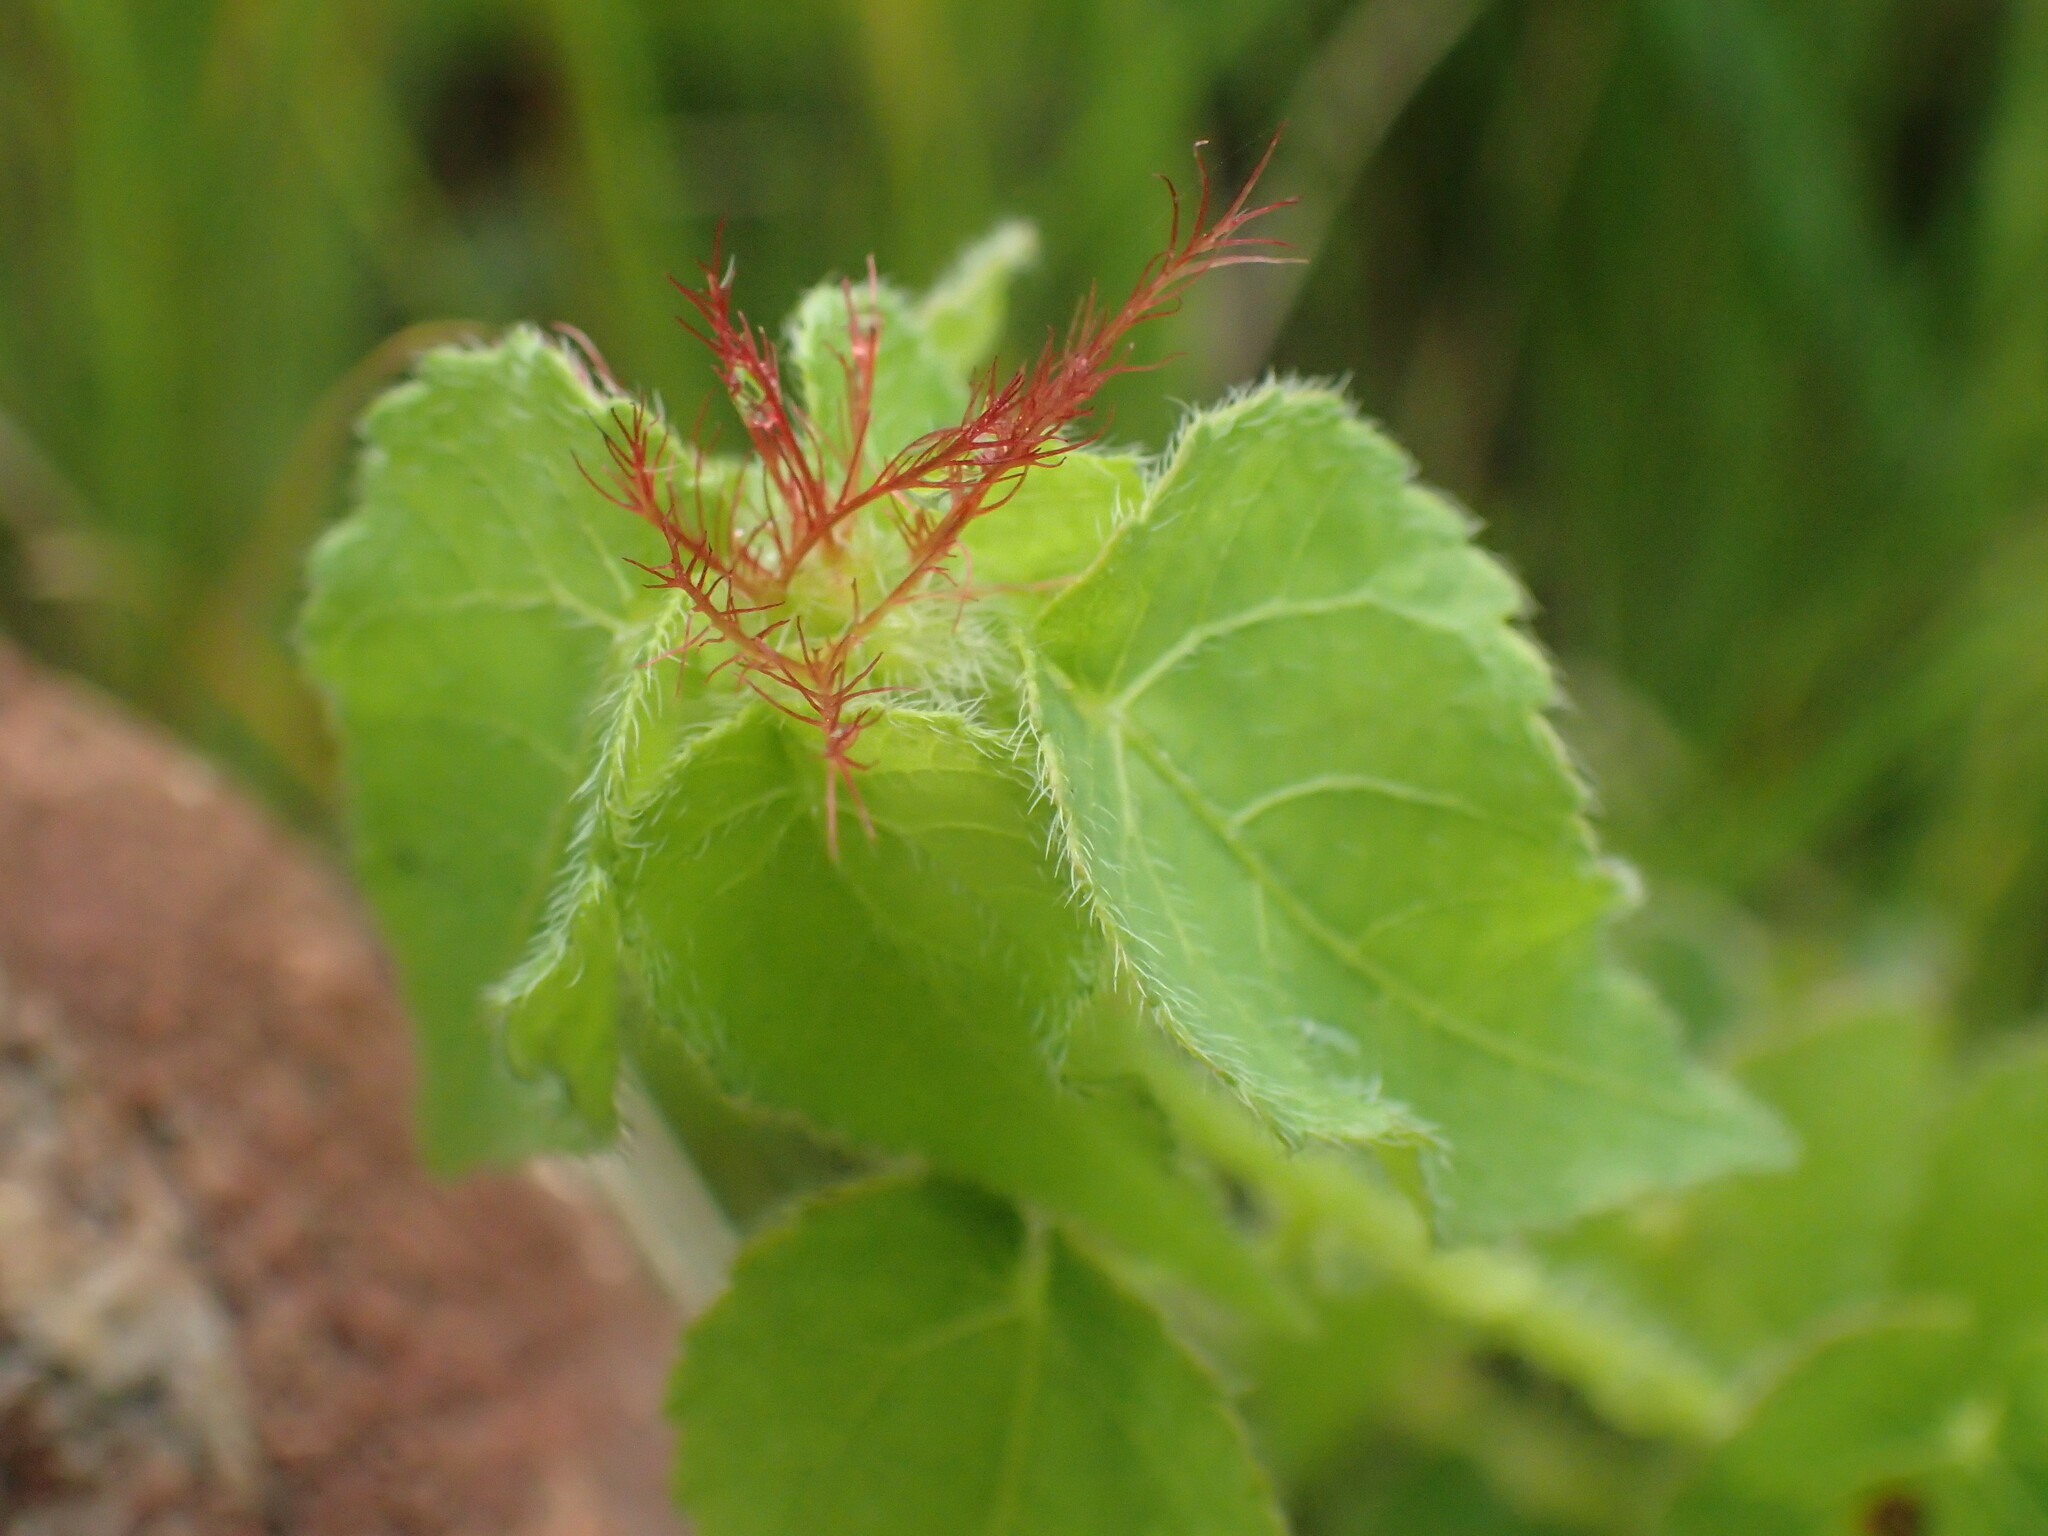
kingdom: Plantae
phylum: Tracheophyta
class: Magnoliopsida
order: Malpighiales
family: Euphorbiaceae
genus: Acalypha
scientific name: Acalypha petiolaris
